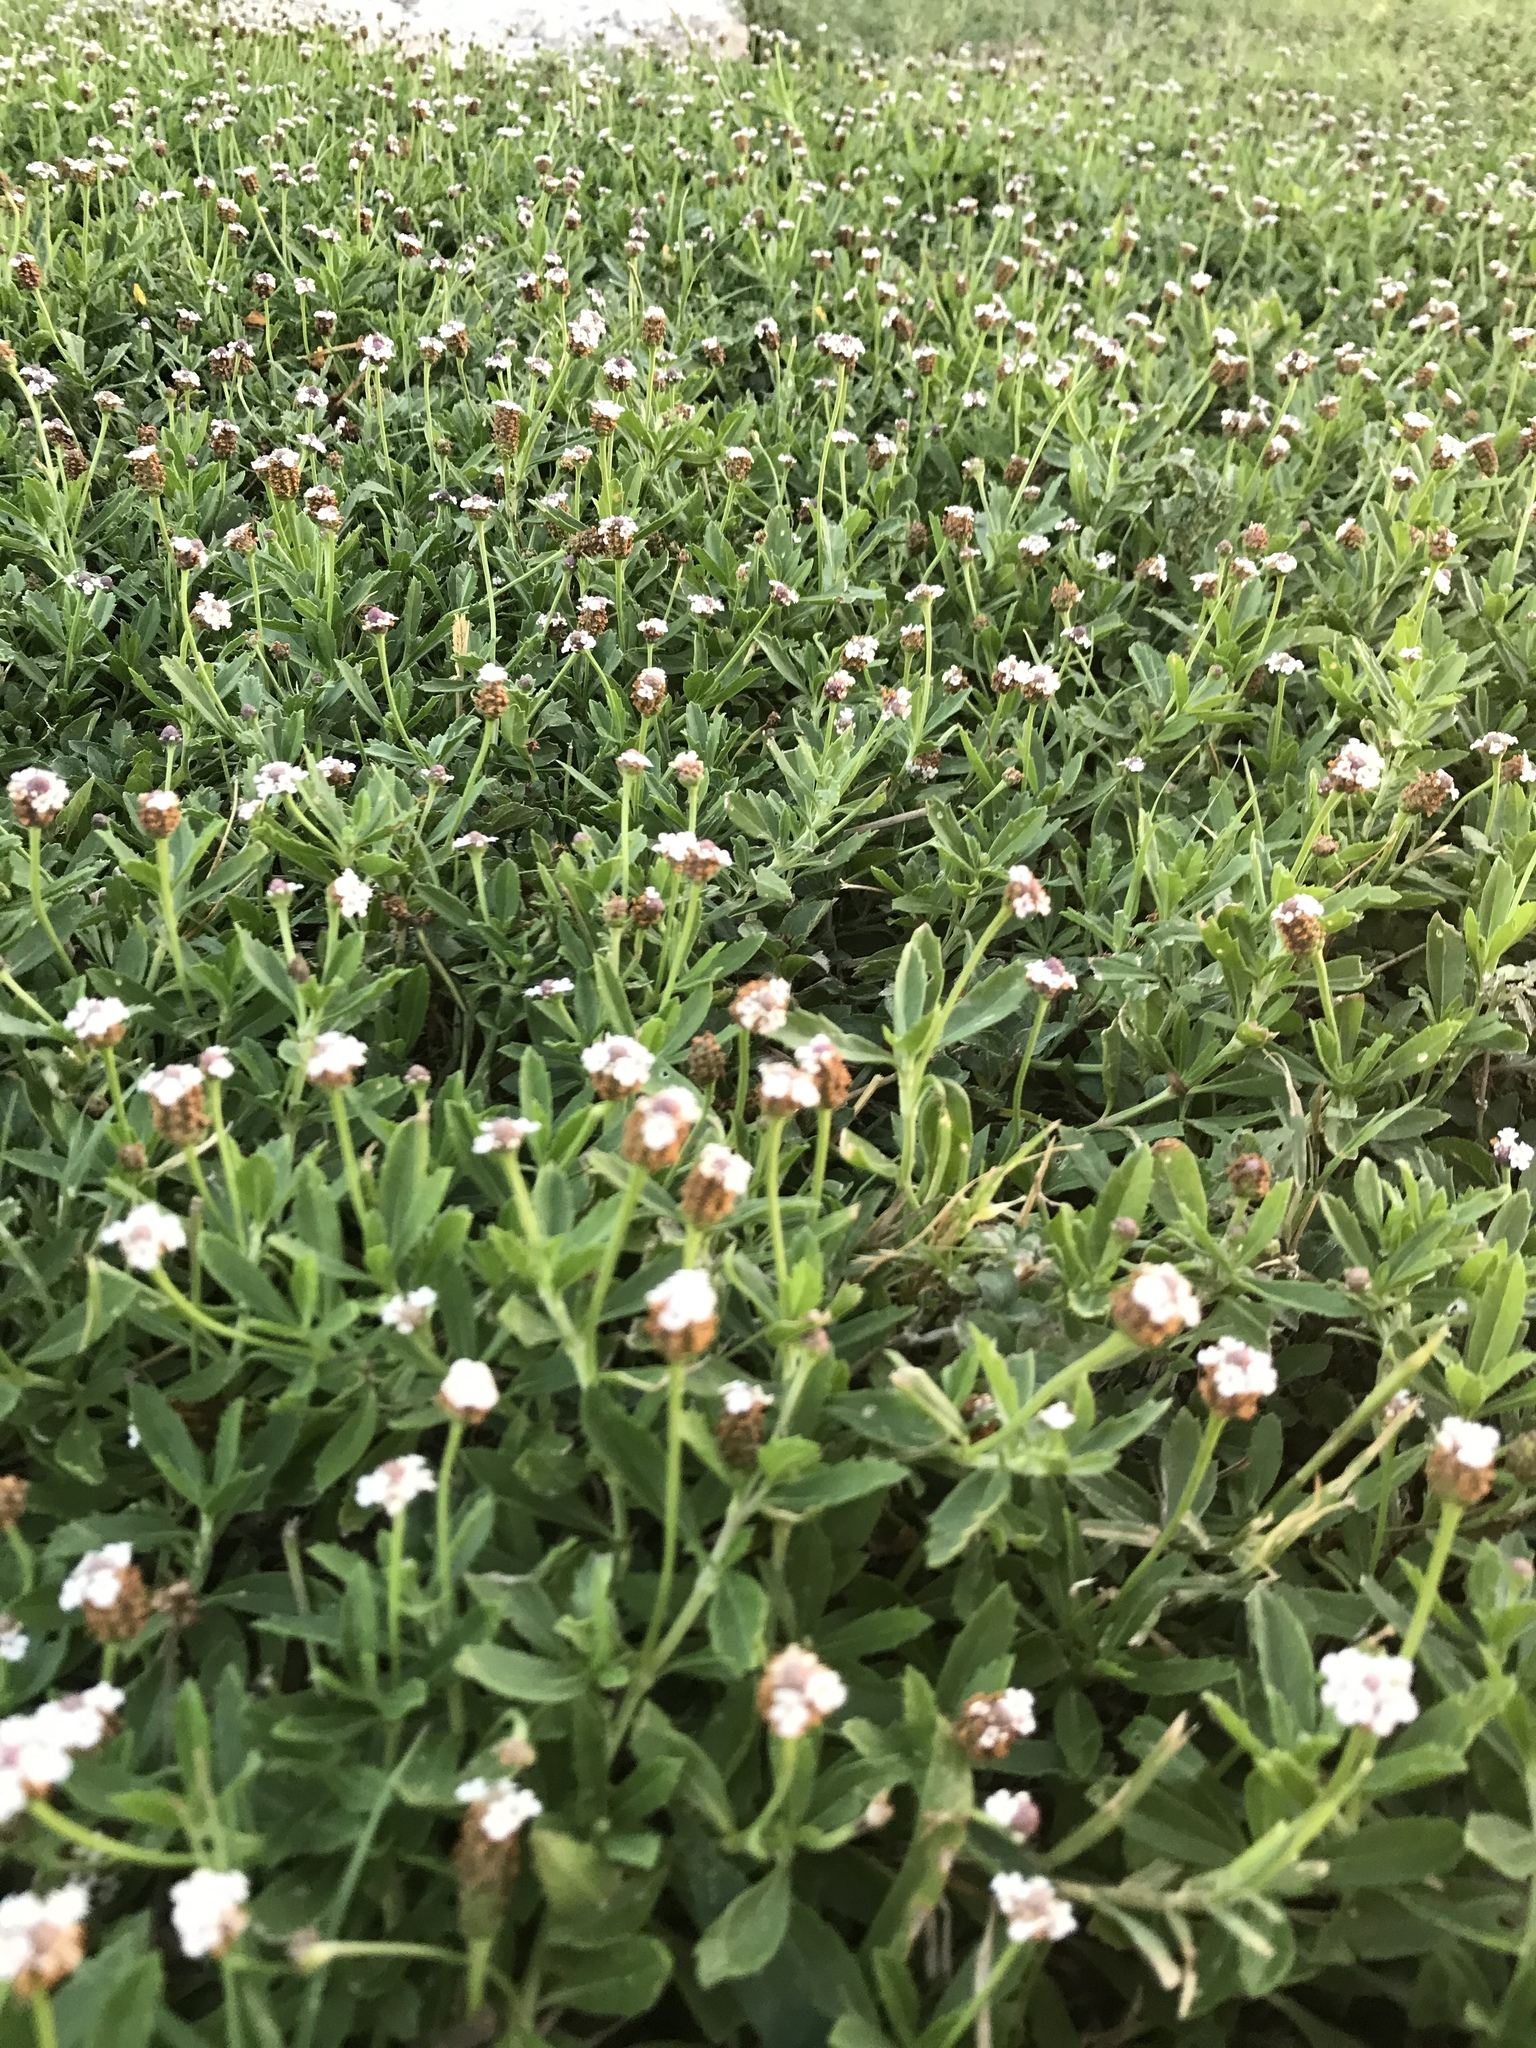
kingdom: Plantae
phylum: Tracheophyta
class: Magnoliopsida
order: Lamiales
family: Verbenaceae
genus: Phyla
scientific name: Phyla nodiflora
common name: Frogfruit
